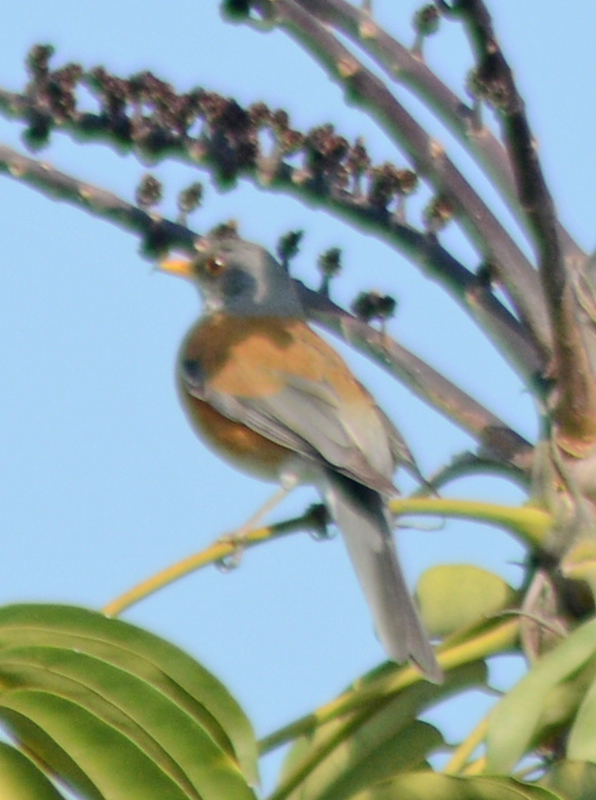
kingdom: Animalia
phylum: Chordata
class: Aves
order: Passeriformes
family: Turdidae
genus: Turdus
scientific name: Turdus rufopalliatus
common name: Rufous-backed robin
